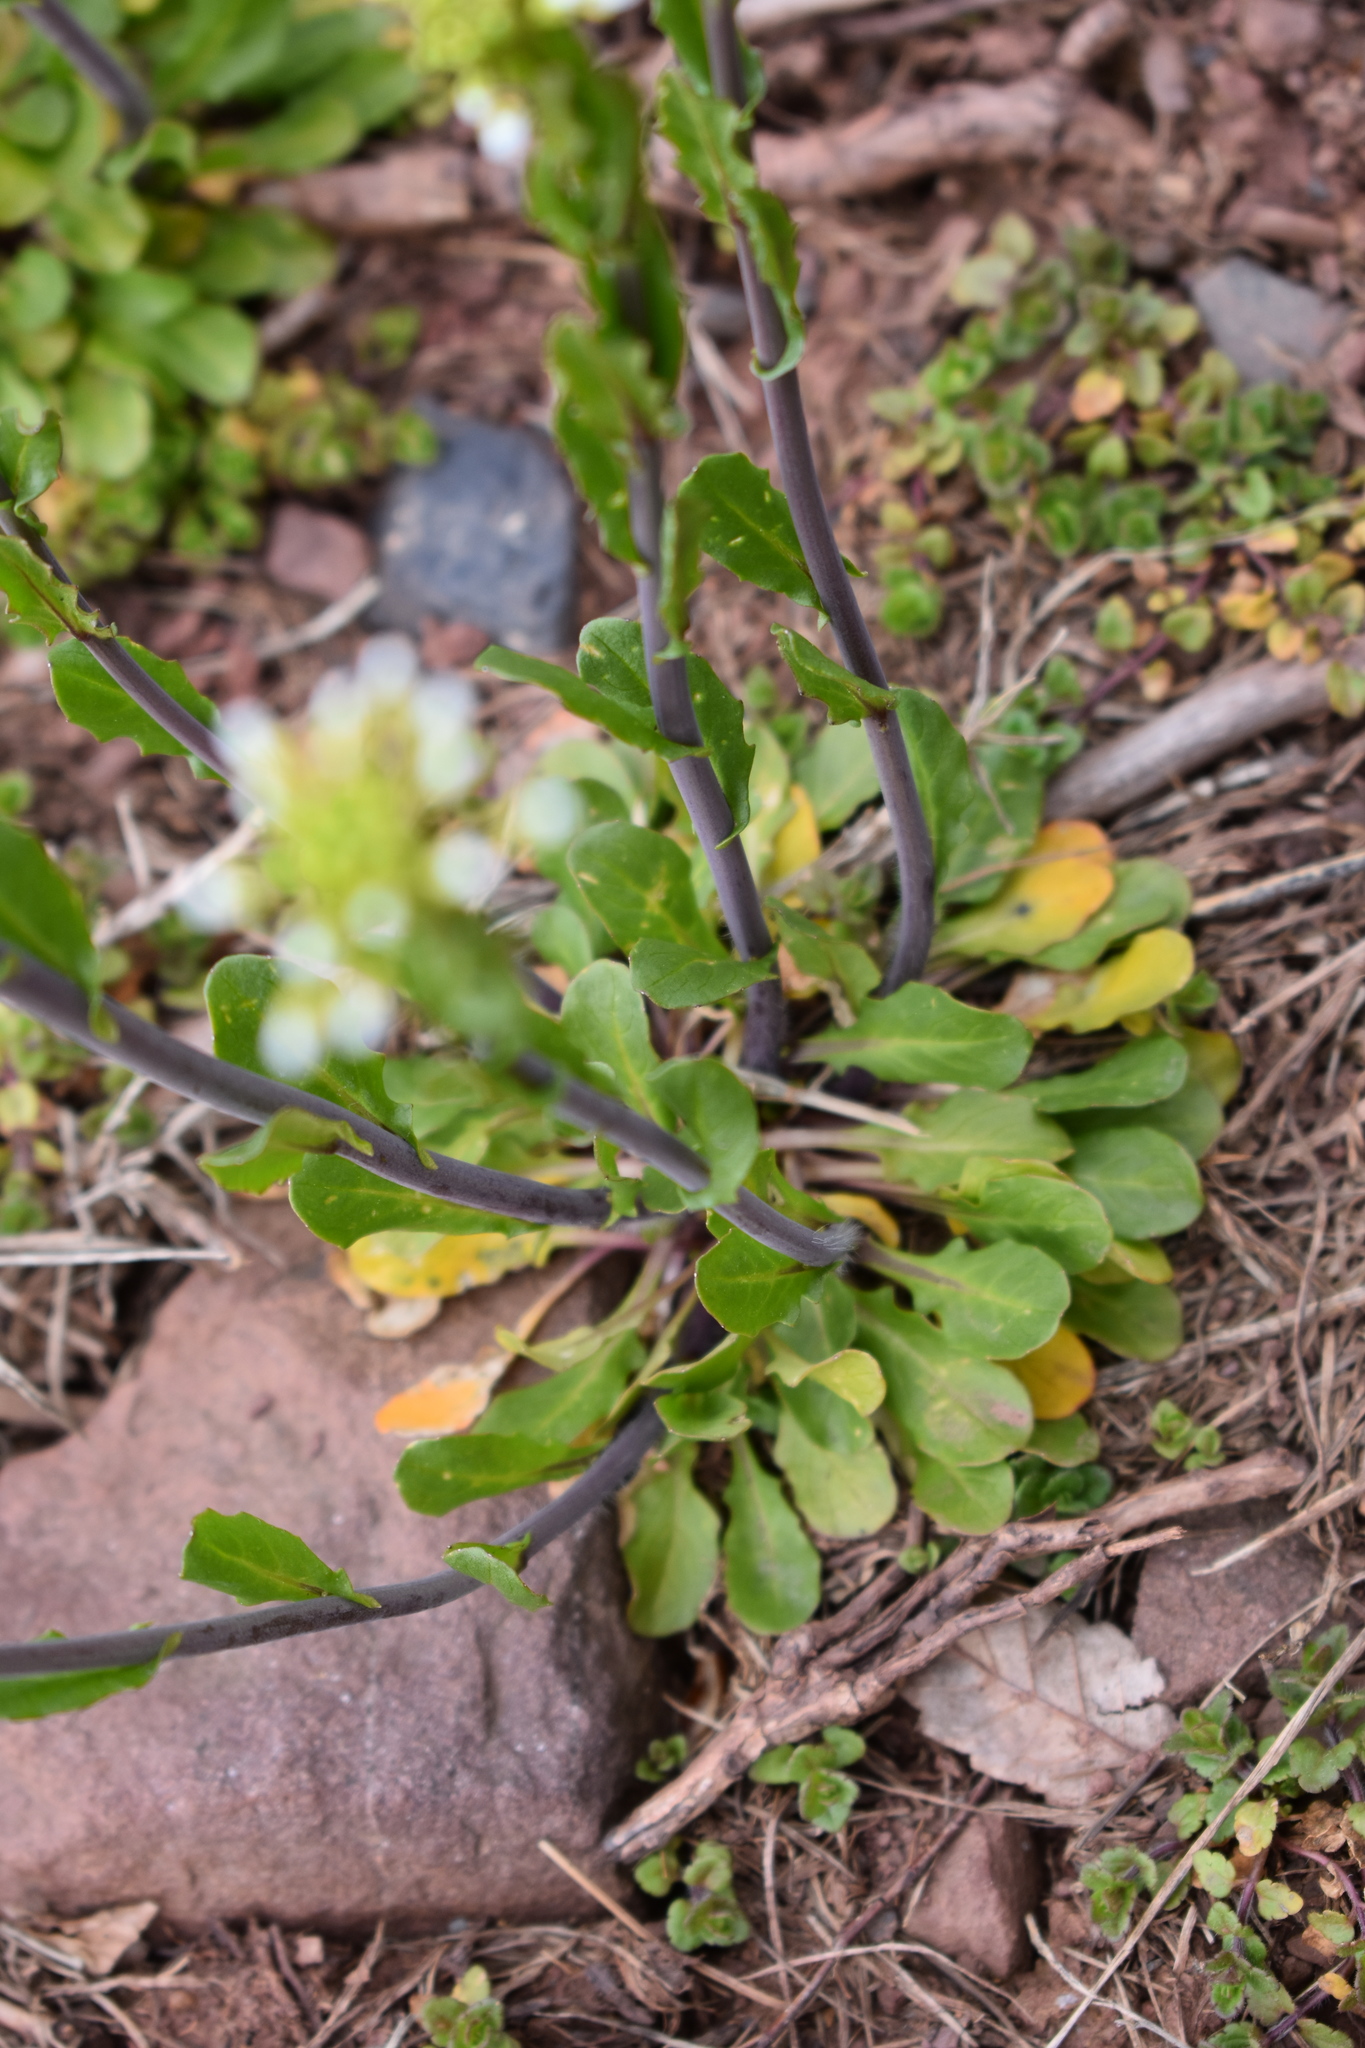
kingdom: Plantae
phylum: Tracheophyta
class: Magnoliopsida
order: Brassicales
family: Brassicaceae
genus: Mummenhoffia
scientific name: Mummenhoffia alliacea
